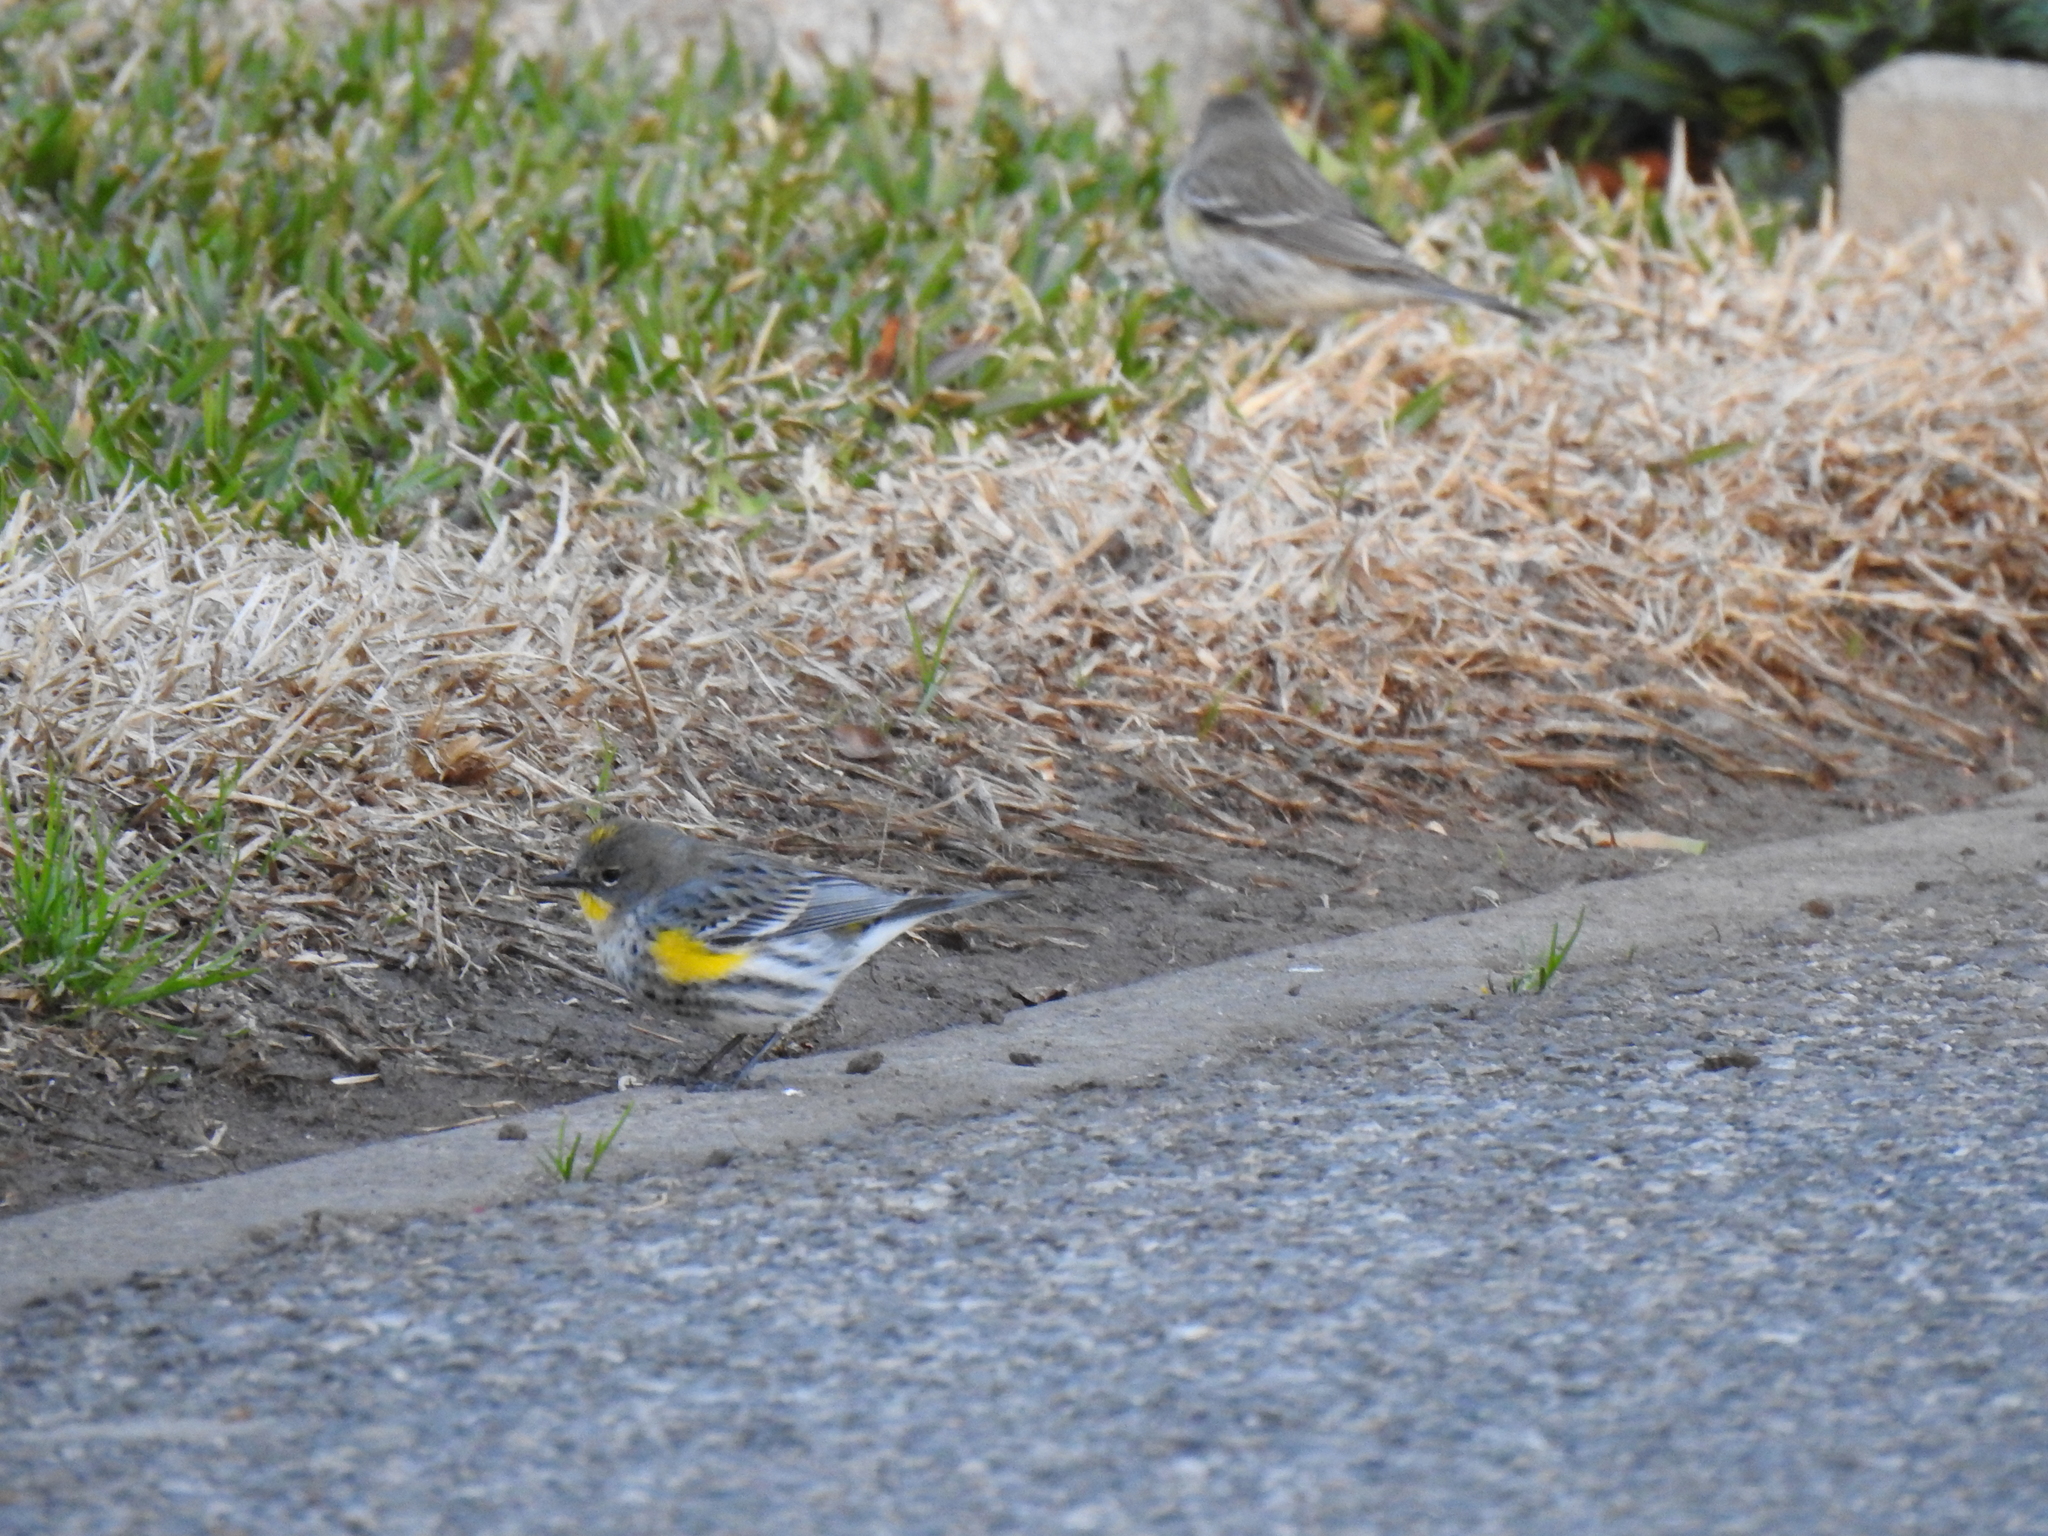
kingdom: Animalia
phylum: Chordata
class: Aves
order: Passeriformes
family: Parulidae
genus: Setophaga
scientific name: Setophaga coronata
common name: Myrtle warbler
